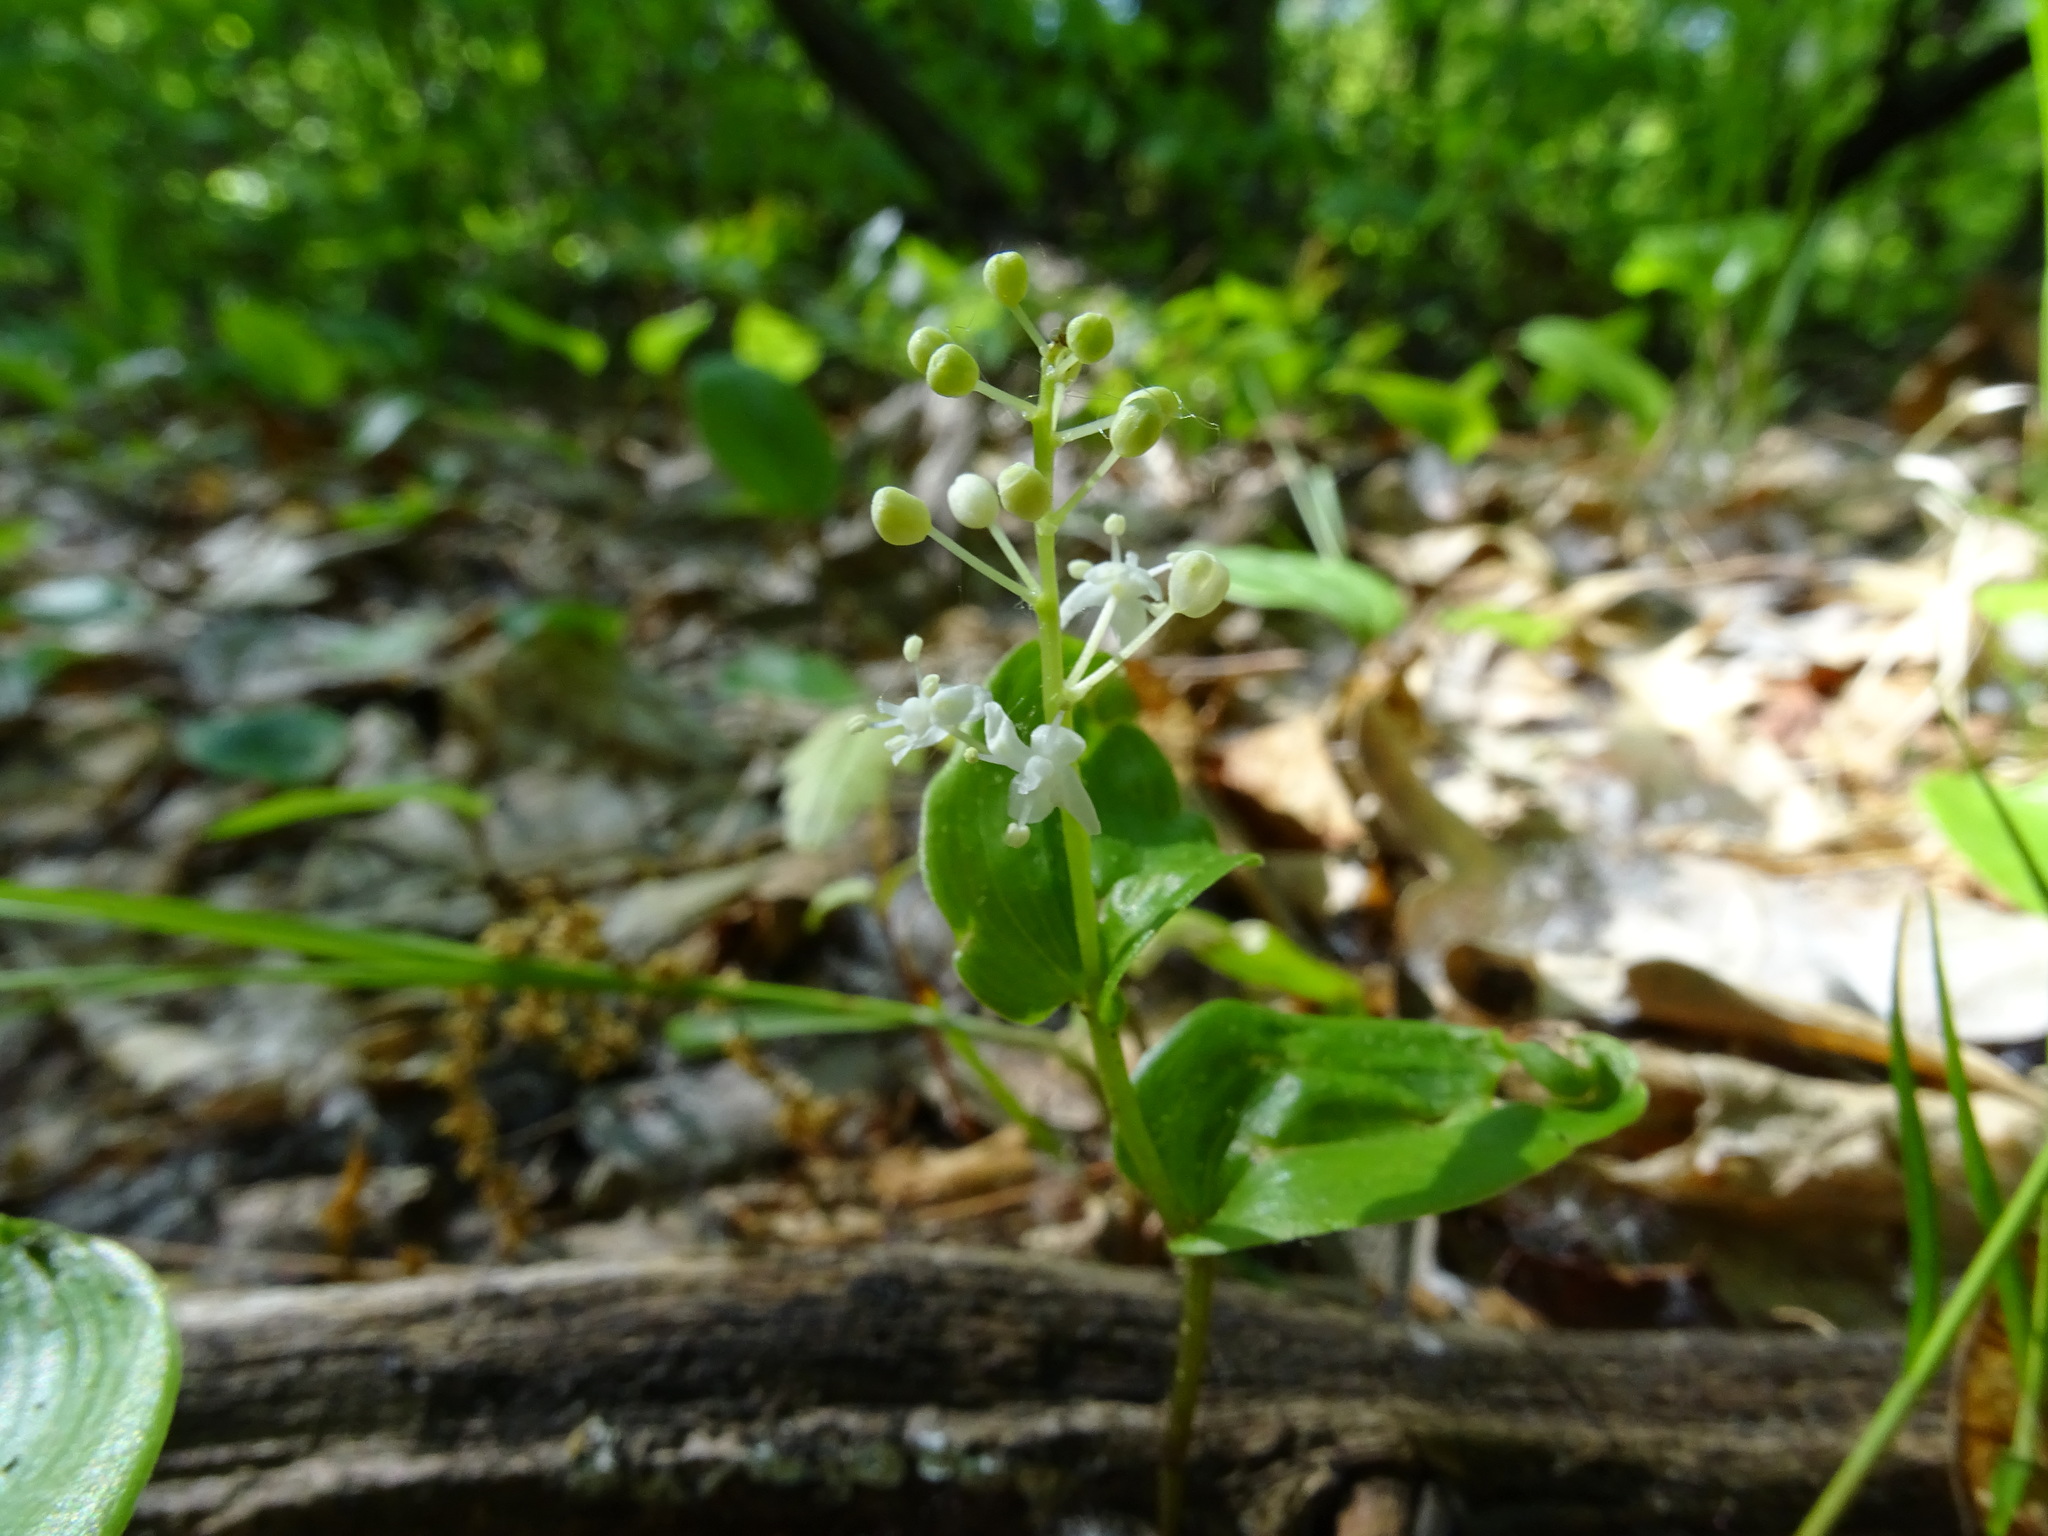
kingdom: Plantae
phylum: Tracheophyta
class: Liliopsida
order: Asparagales
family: Asparagaceae
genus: Maianthemum
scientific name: Maianthemum canadense
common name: False lily-of-the-valley
